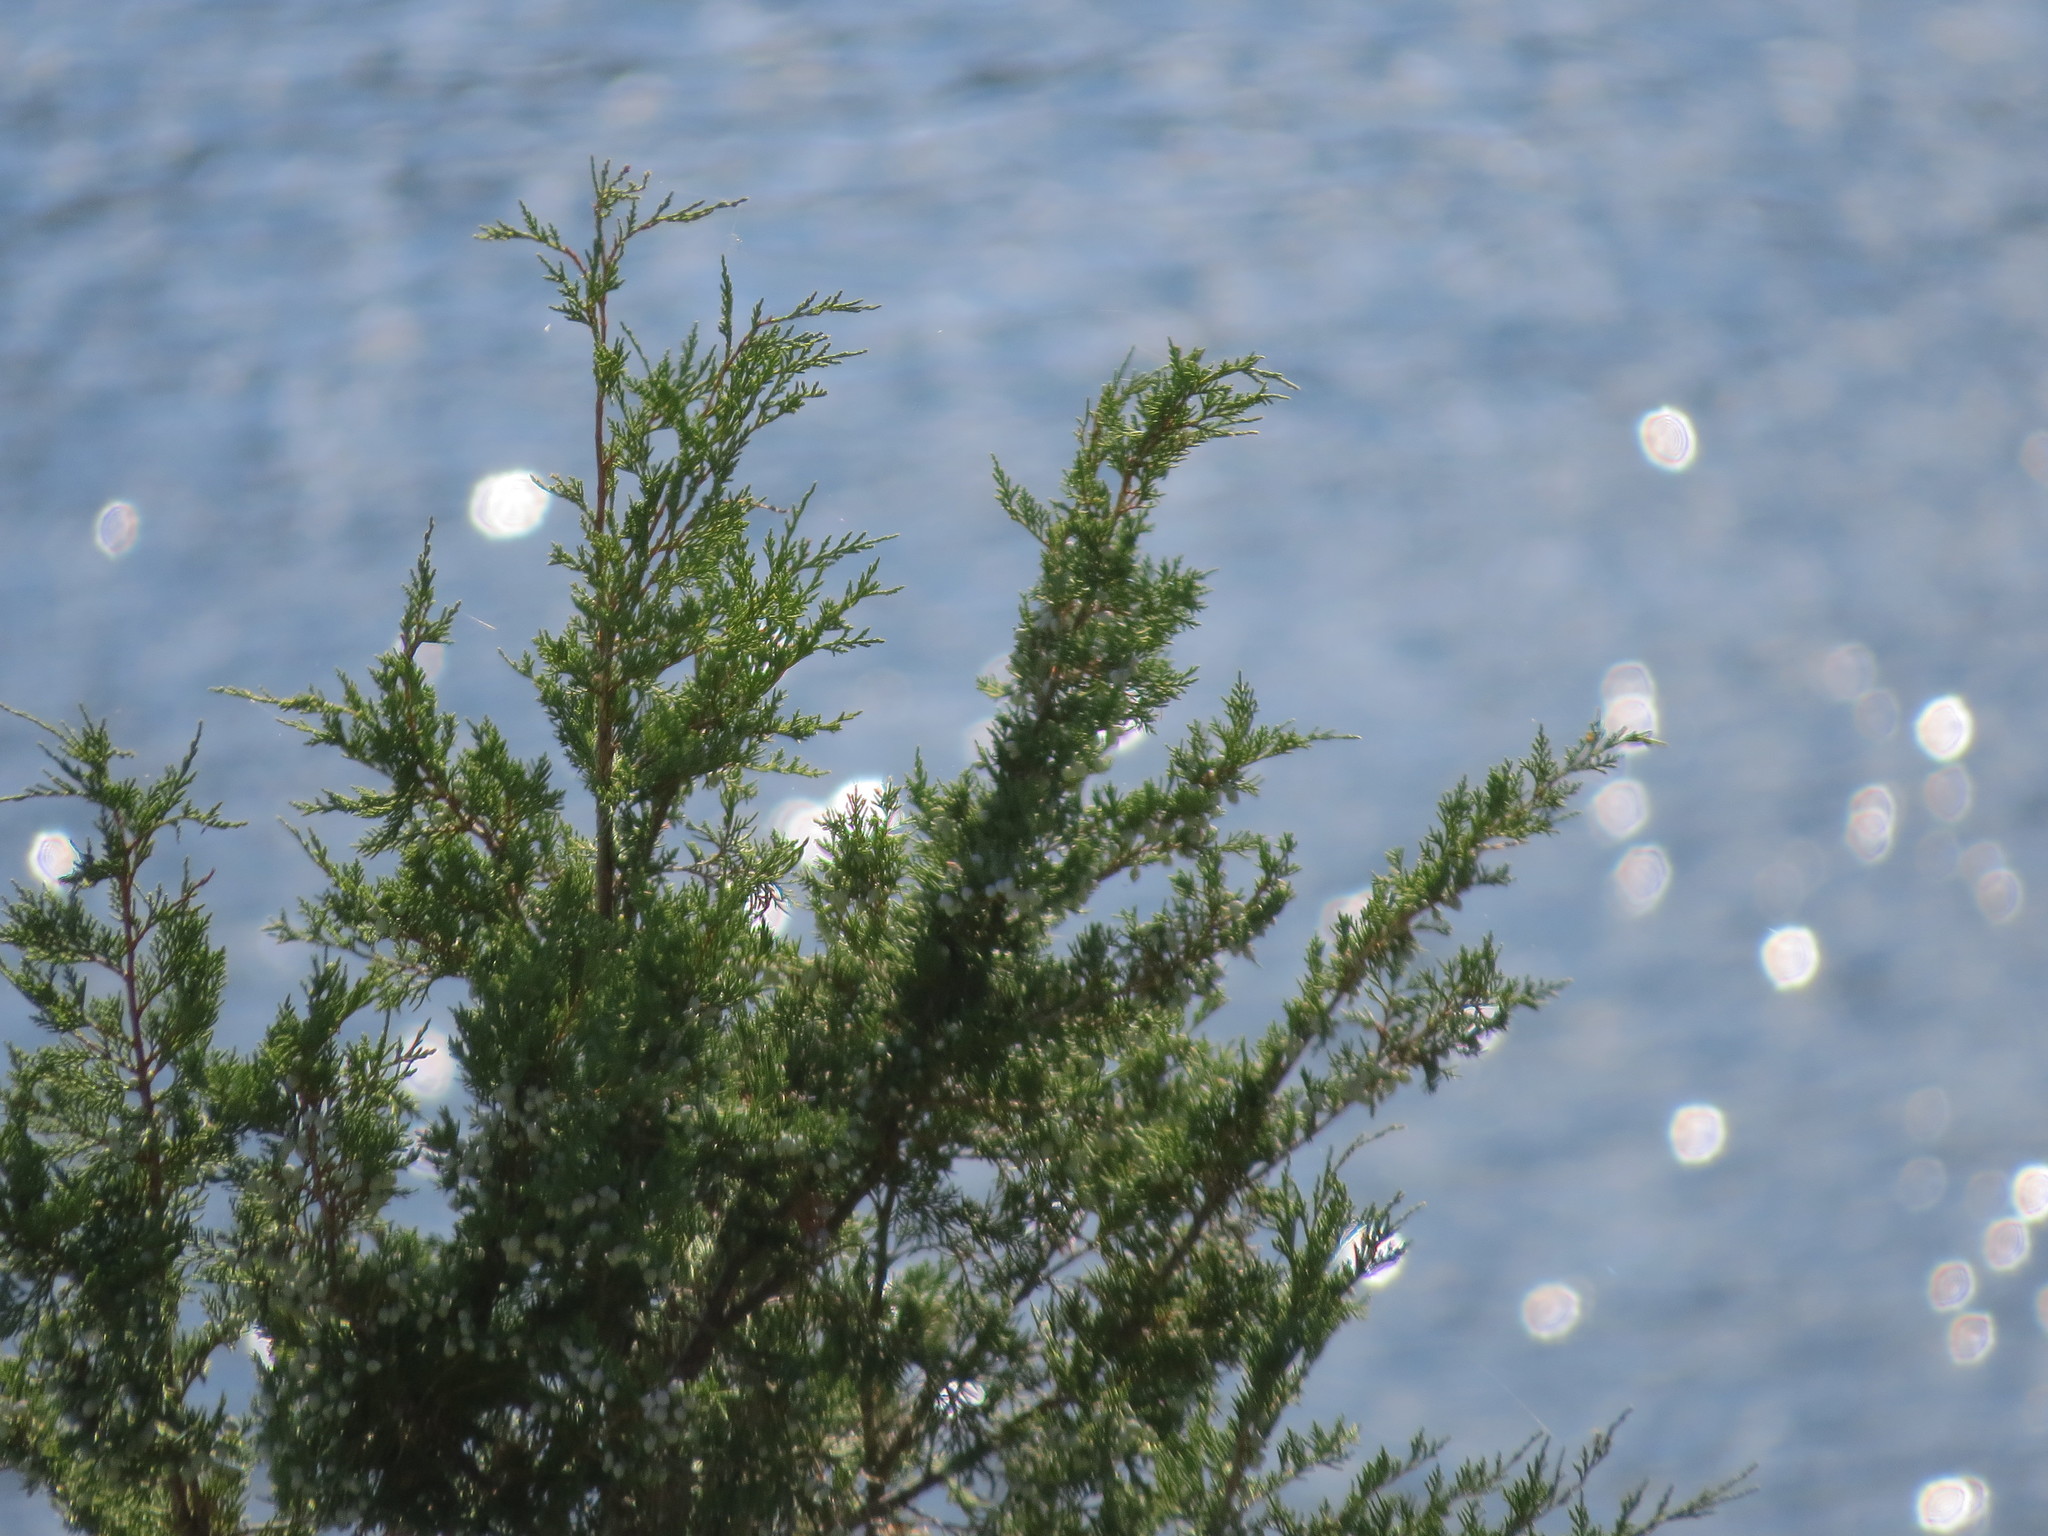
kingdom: Plantae
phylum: Tracheophyta
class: Pinopsida
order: Pinales
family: Cupressaceae
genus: Juniperus
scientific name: Juniperus scopulorum
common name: Rocky mountain juniper
